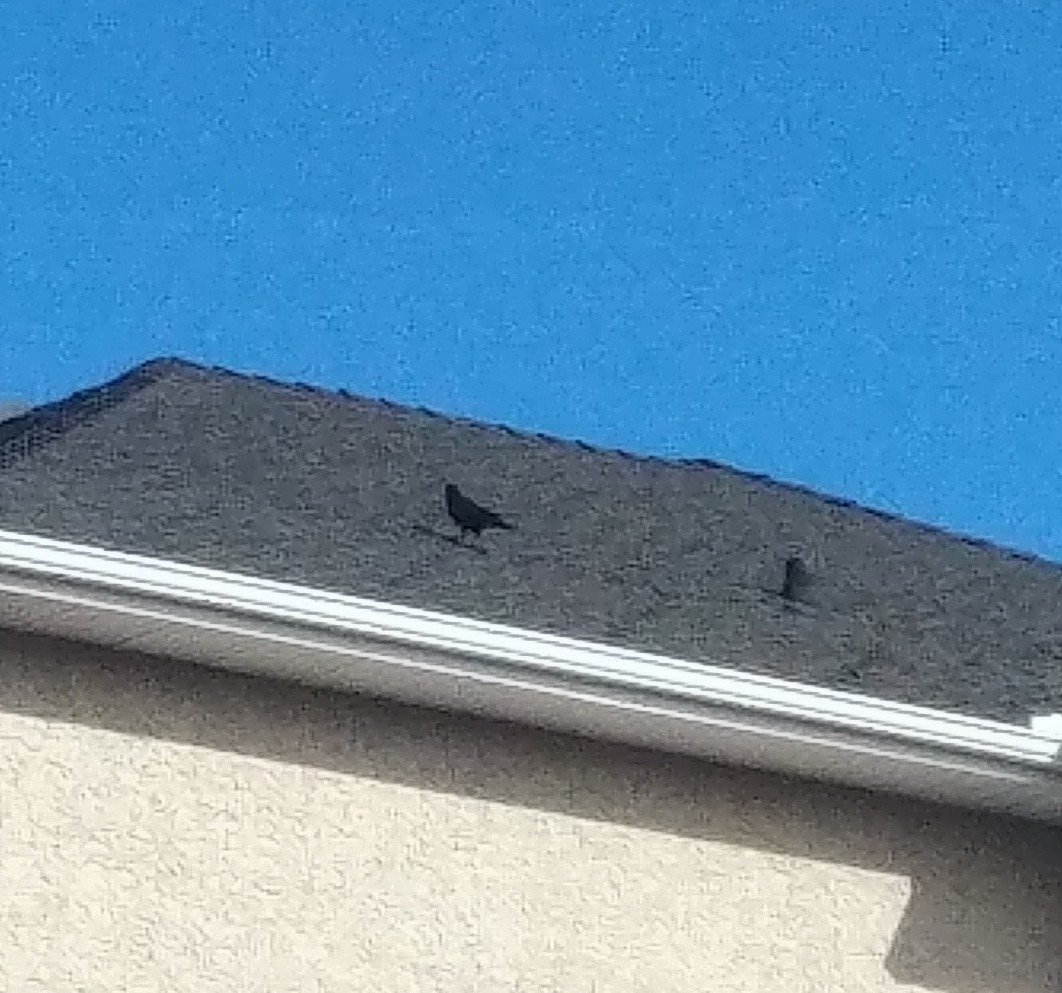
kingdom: Animalia
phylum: Chordata
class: Aves
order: Passeriformes
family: Corvidae
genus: Corvus
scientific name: Corvus brachyrhynchos
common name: American crow
